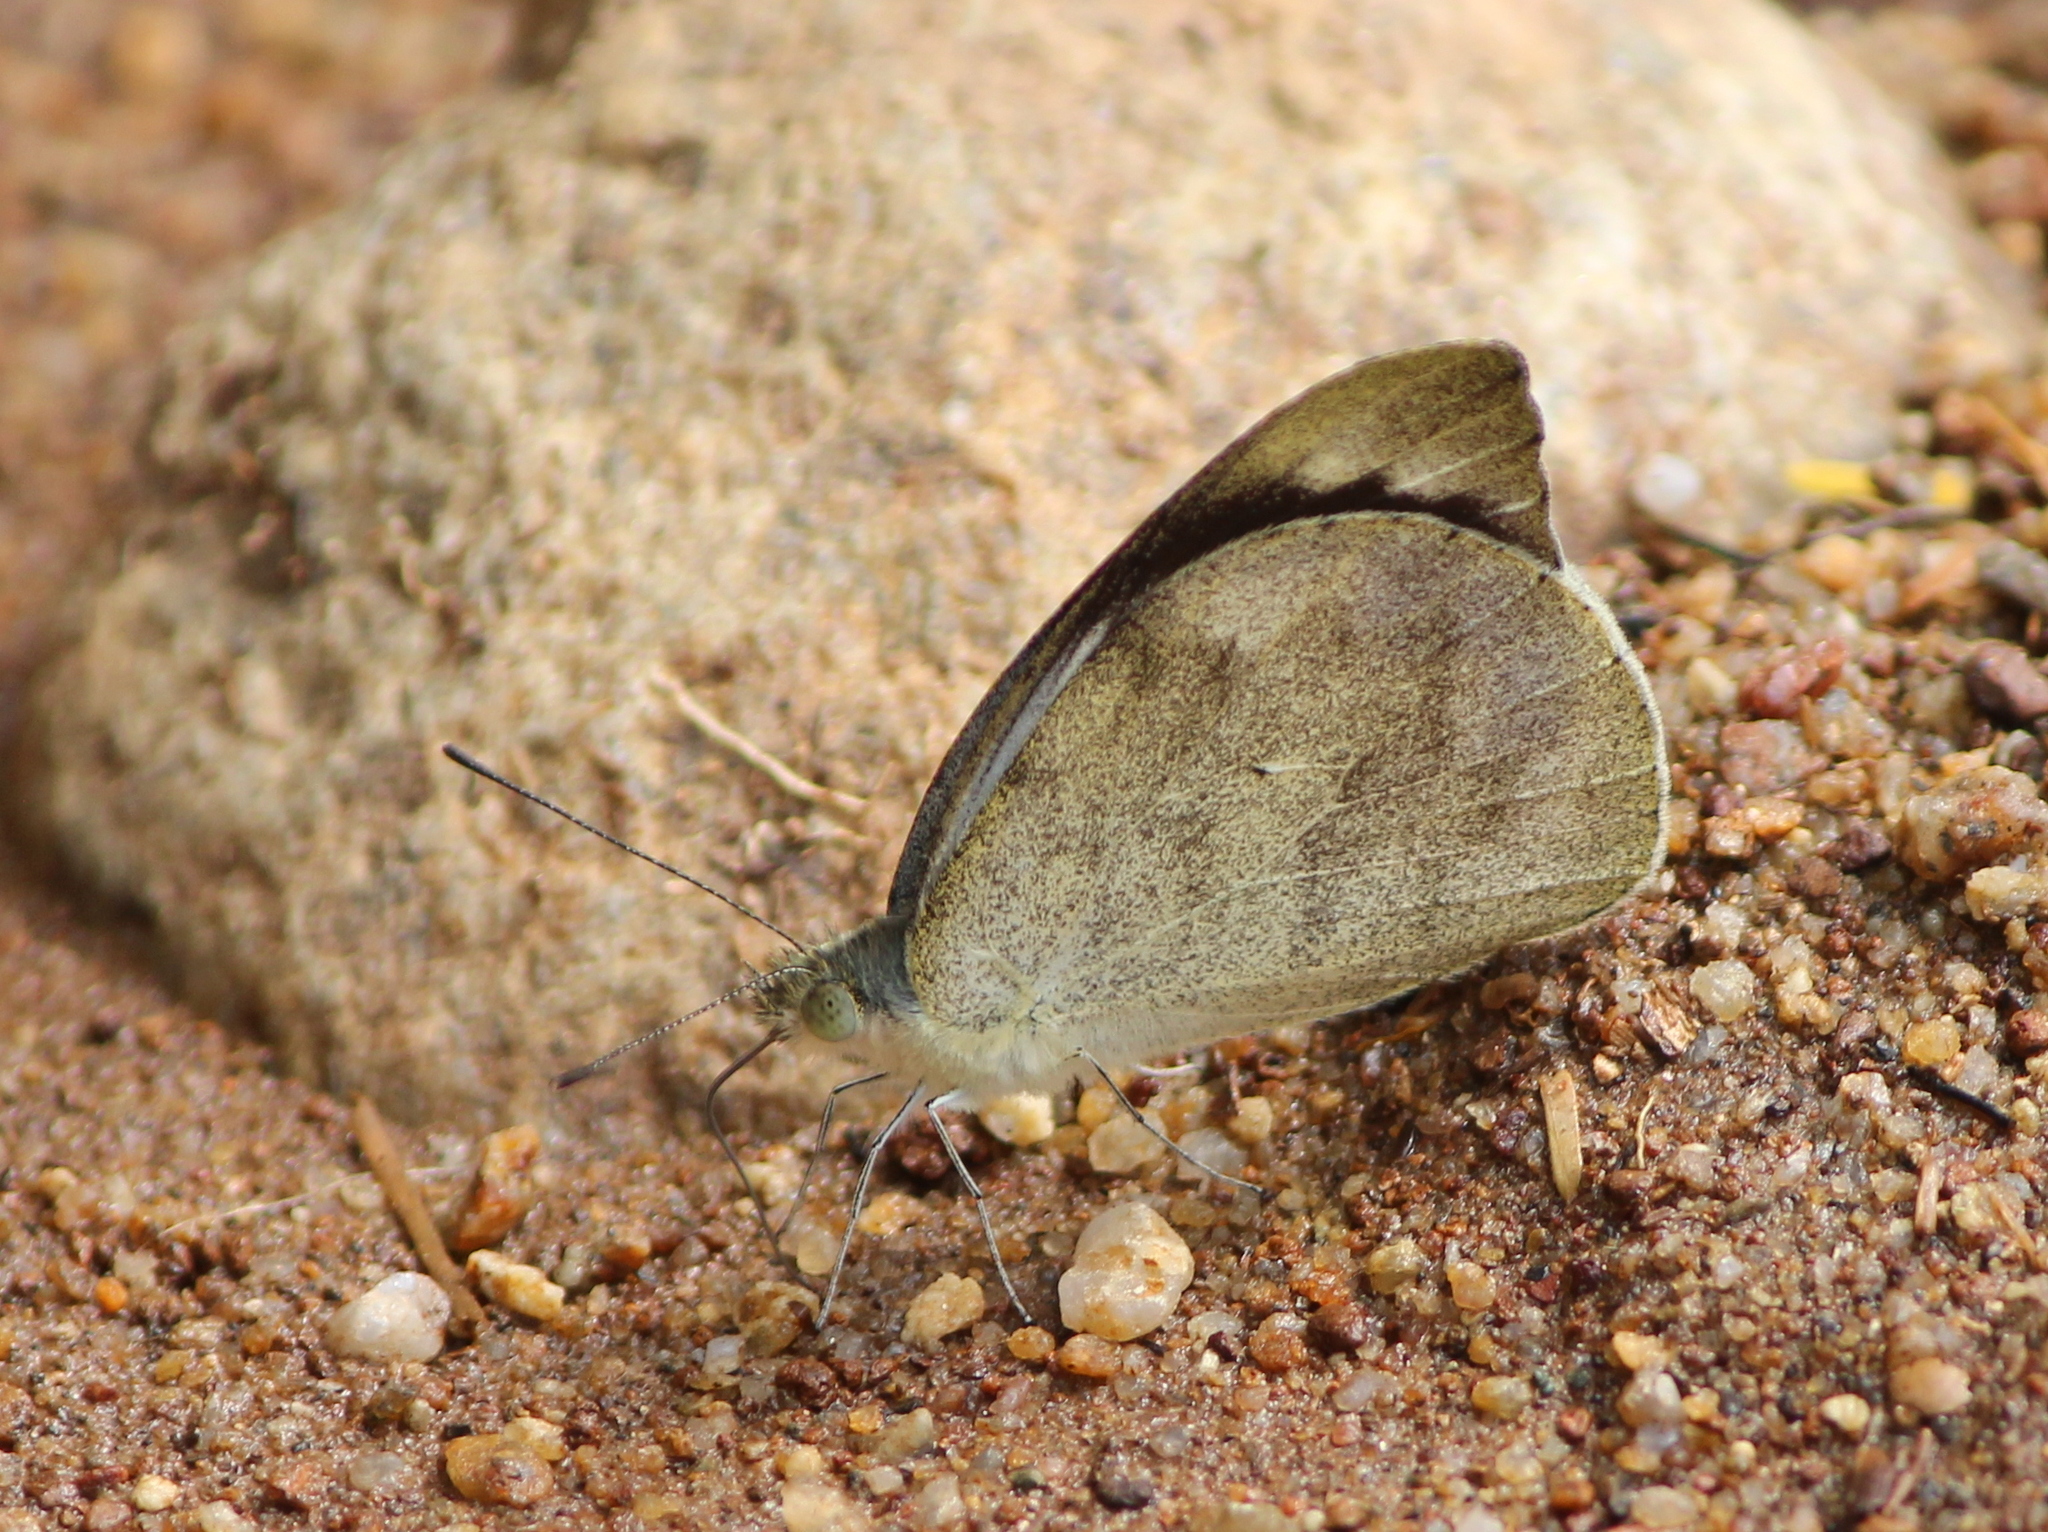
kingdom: Animalia
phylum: Arthropoda
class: Insecta
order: Lepidoptera
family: Pieridae
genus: Appias
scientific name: Appias indra
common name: Plain puffin
